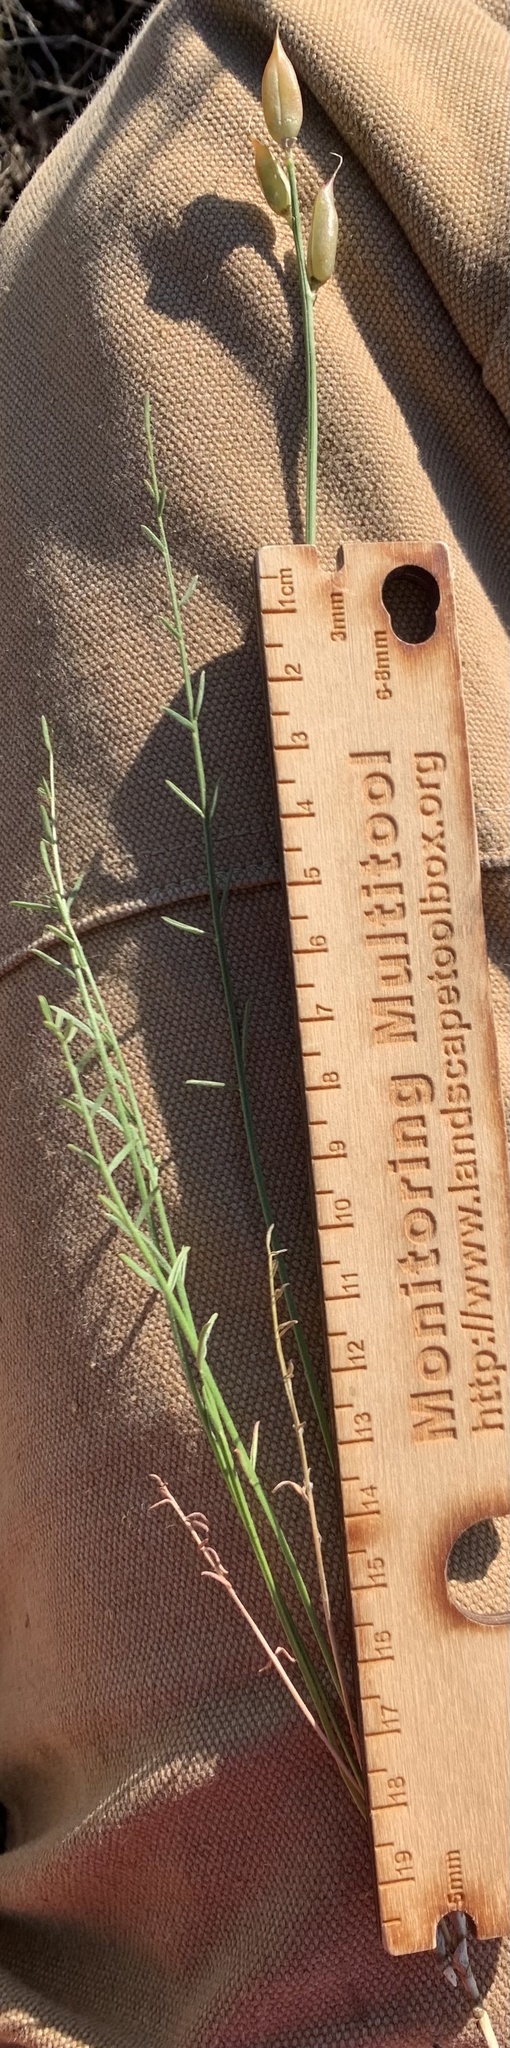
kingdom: Plantae
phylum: Tracheophyta
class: Magnoliopsida
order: Fabales
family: Fabaceae
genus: Astragalus
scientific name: Astragalus conjunctus
